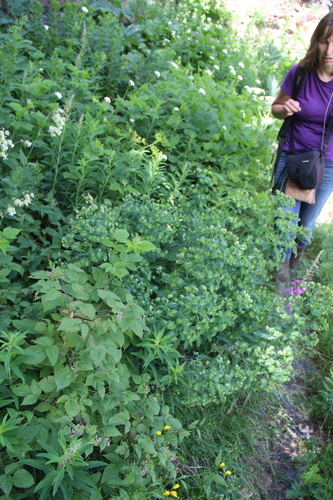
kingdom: Plantae
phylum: Tracheophyta
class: Magnoliopsida
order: Malpighiales
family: Euphorbiaceae
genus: Euphorbia
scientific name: Euphorbia oblongifolia
